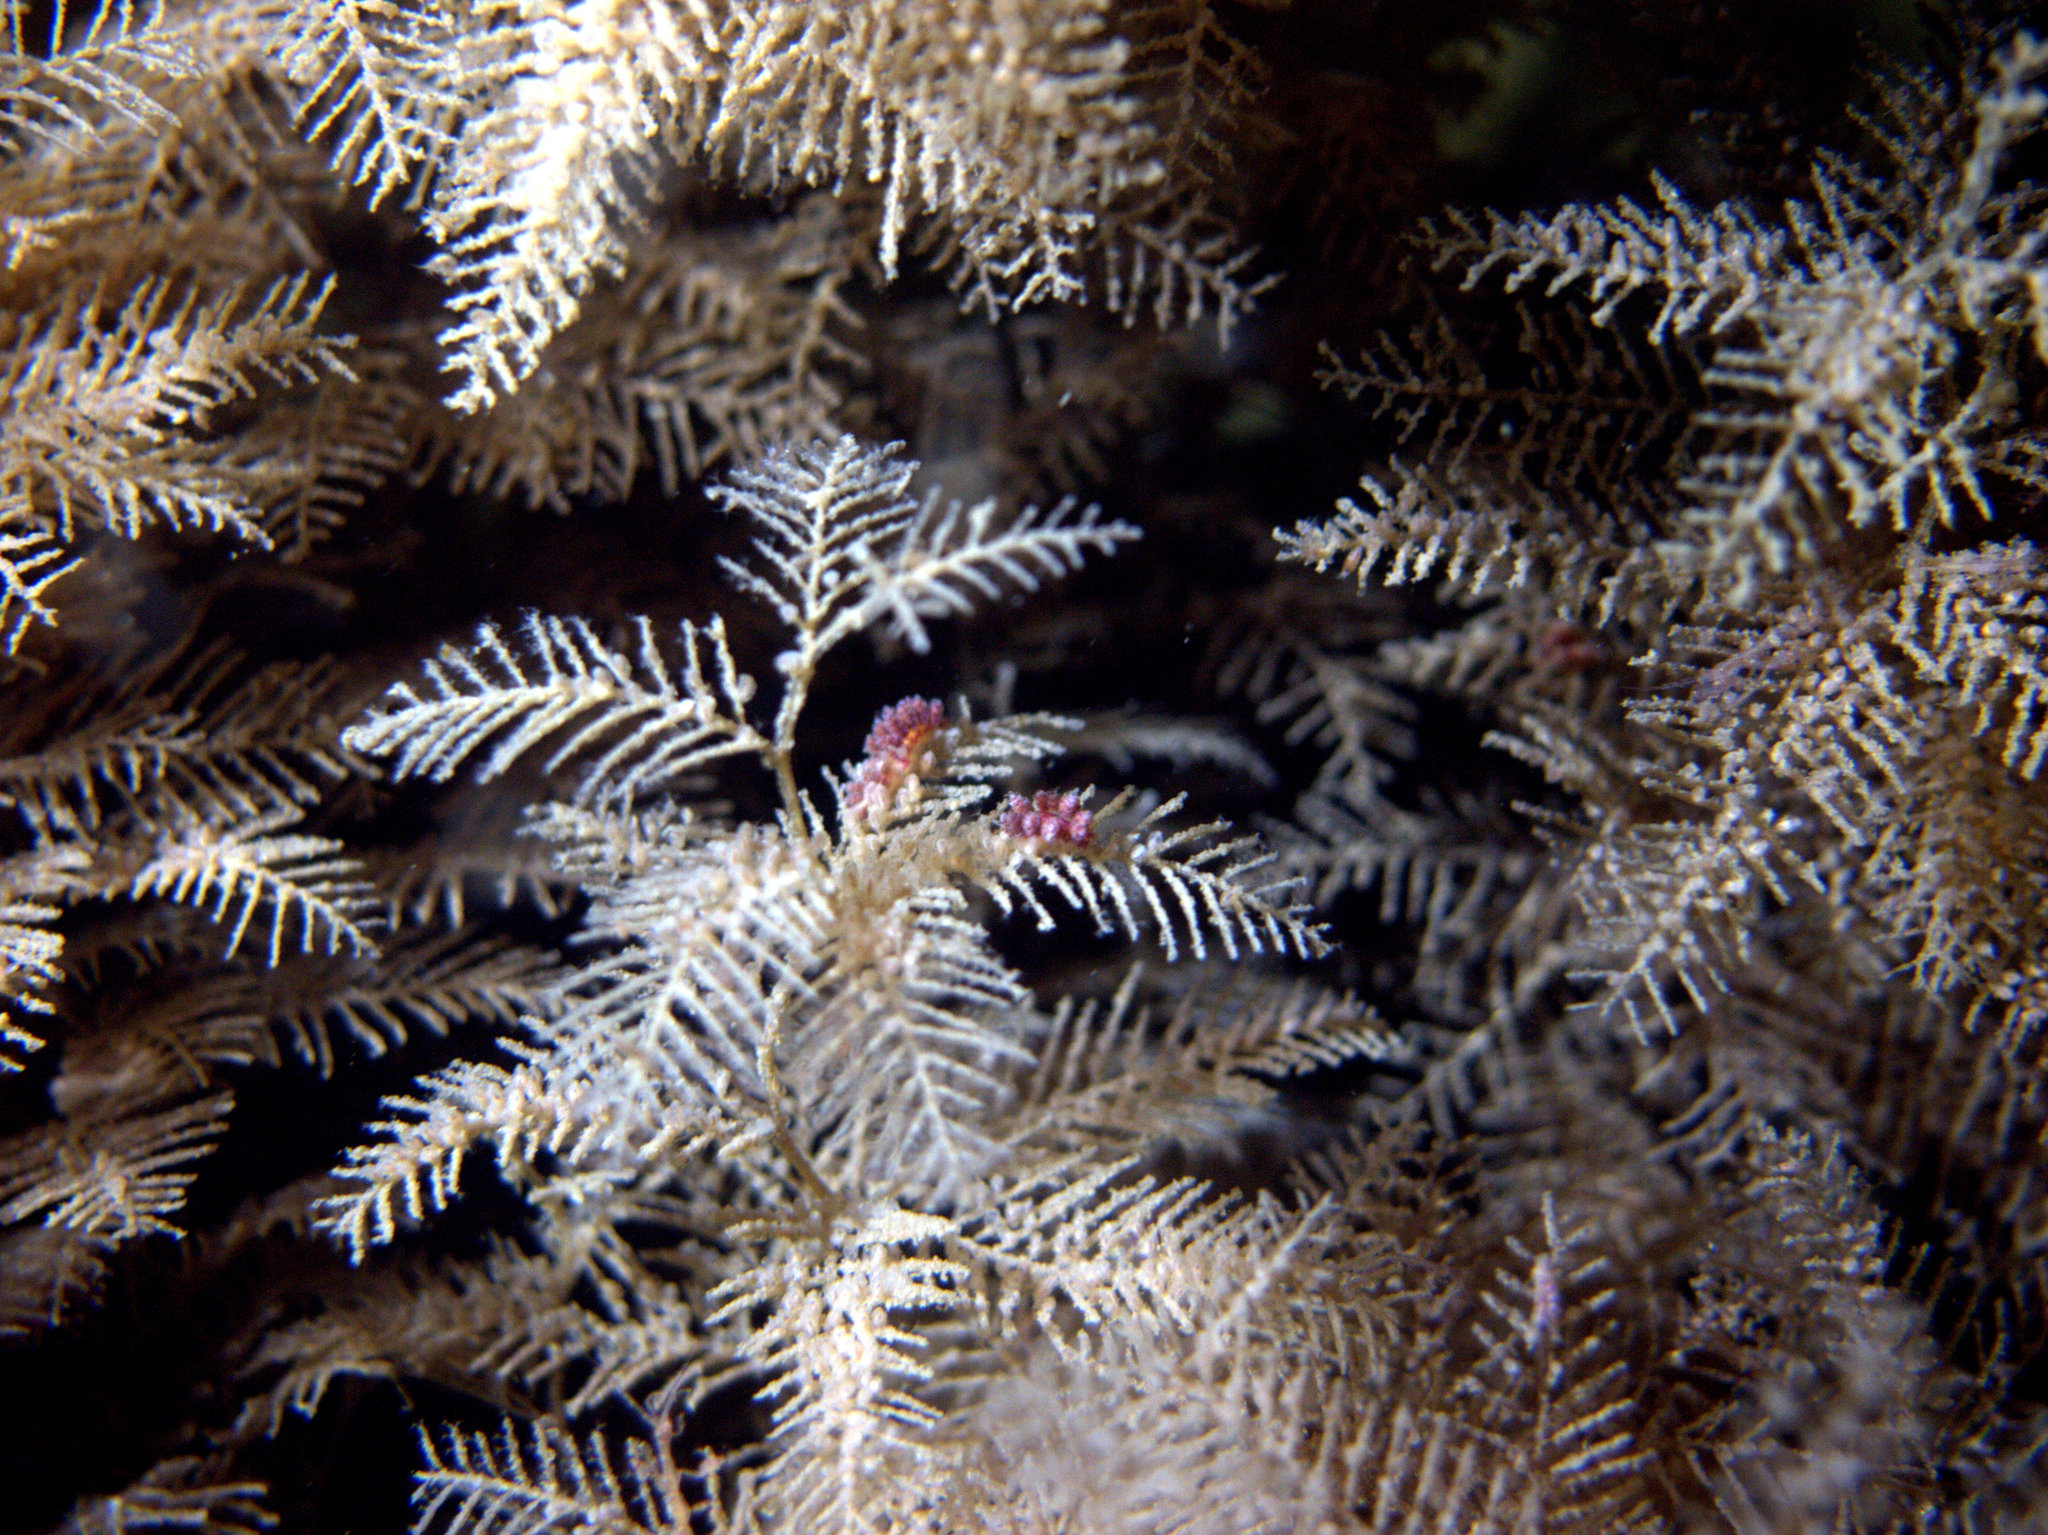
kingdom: Animalia
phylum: Mollusca
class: Gastropoda
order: Nudibranchia
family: Dotidae
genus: Doto
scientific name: Doto hydrallmaniae
